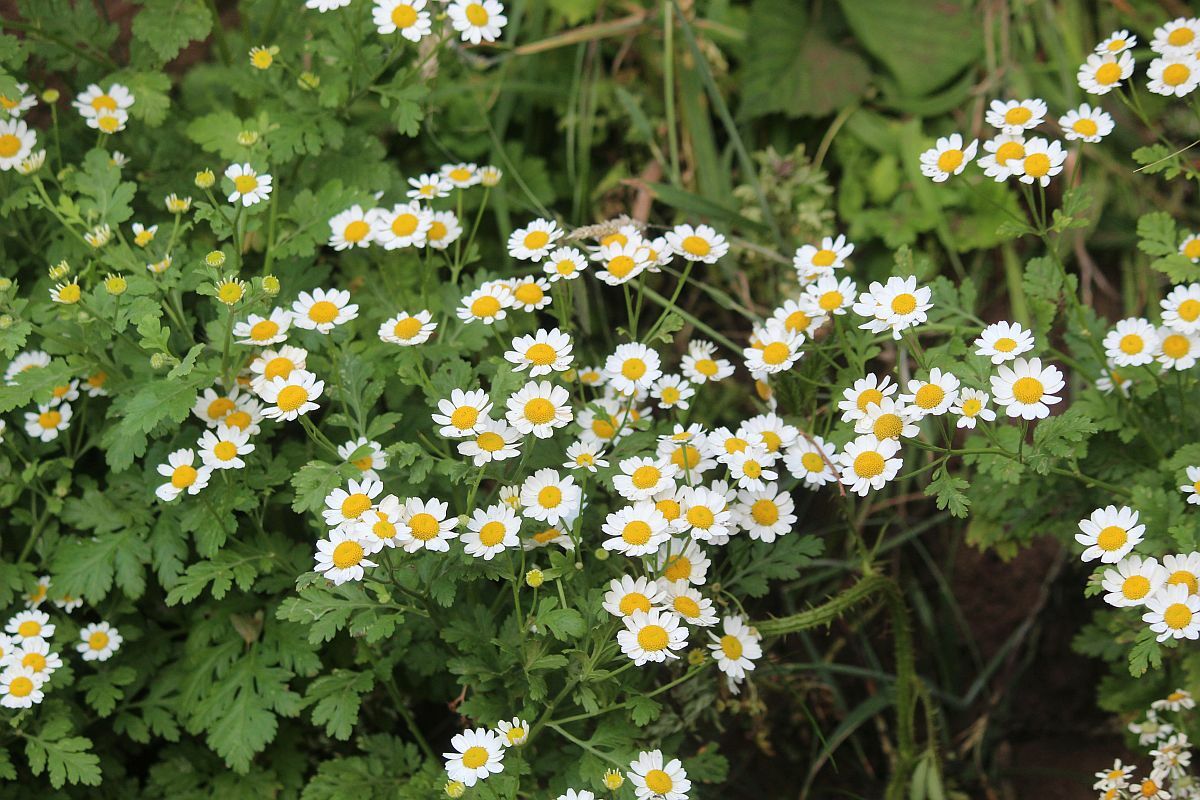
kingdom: Plantae
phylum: Tracheophyta
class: Magnoliopsida
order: Asterales
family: Asteraceae
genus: Tanacetum
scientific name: Tanacetum parthenium
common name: Feverfew
